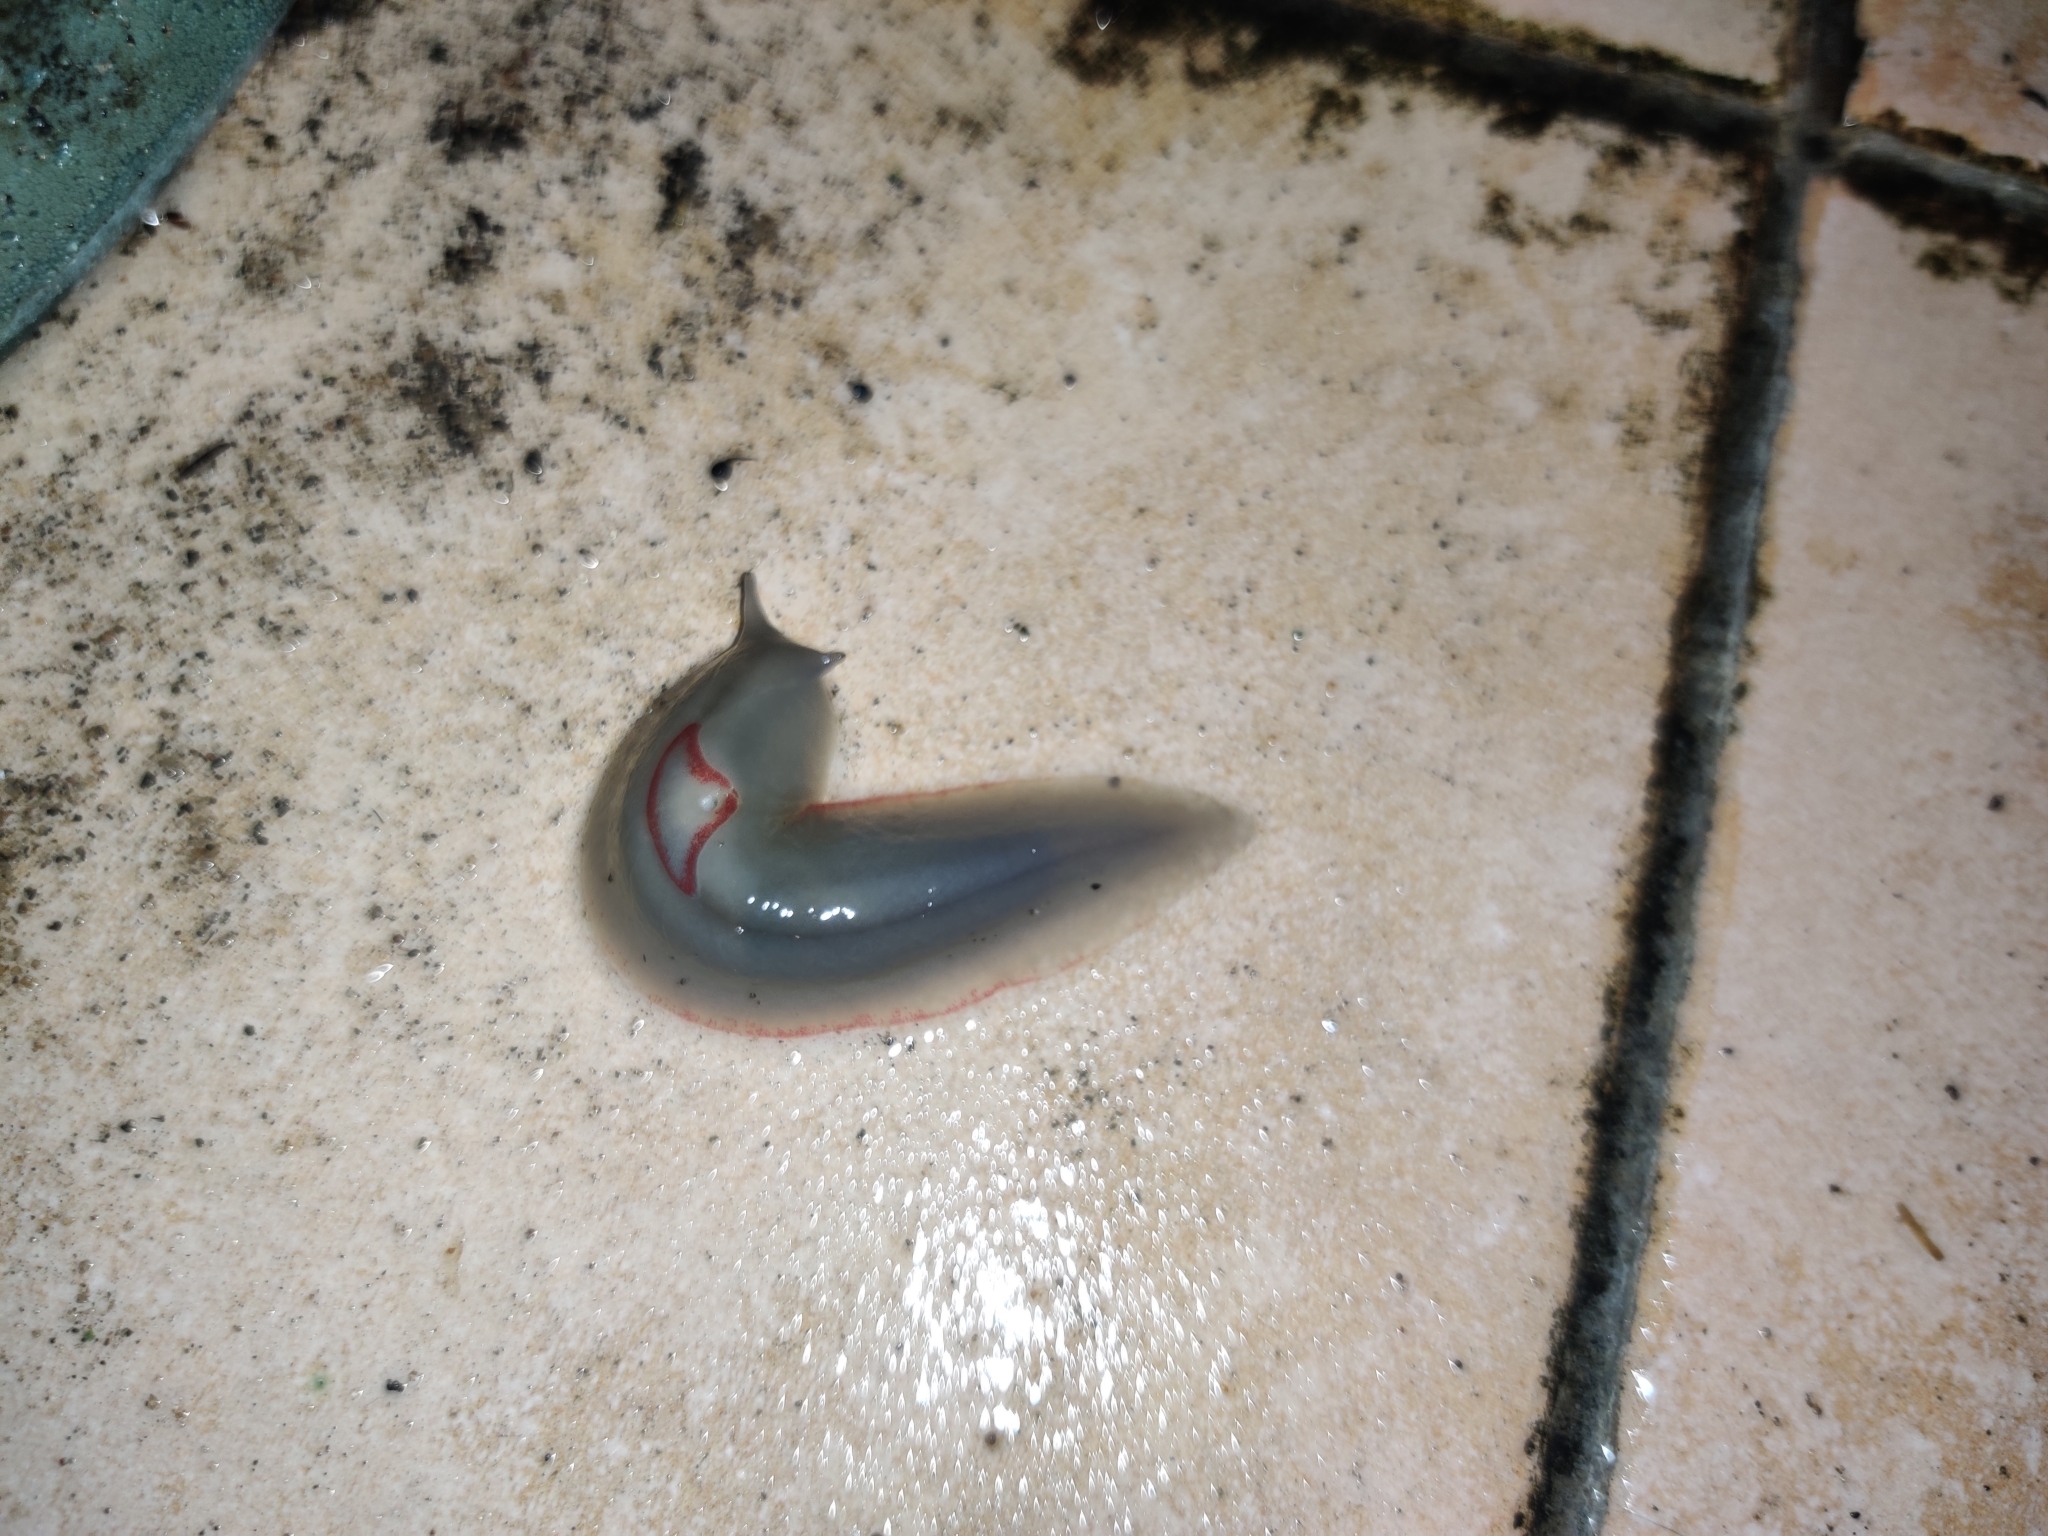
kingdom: Animalia
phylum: Mollusca
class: Gastropoda
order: Stylommatophora
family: Athoracophoridae
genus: Triboniophorus
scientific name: Triboniophorus graeffei
